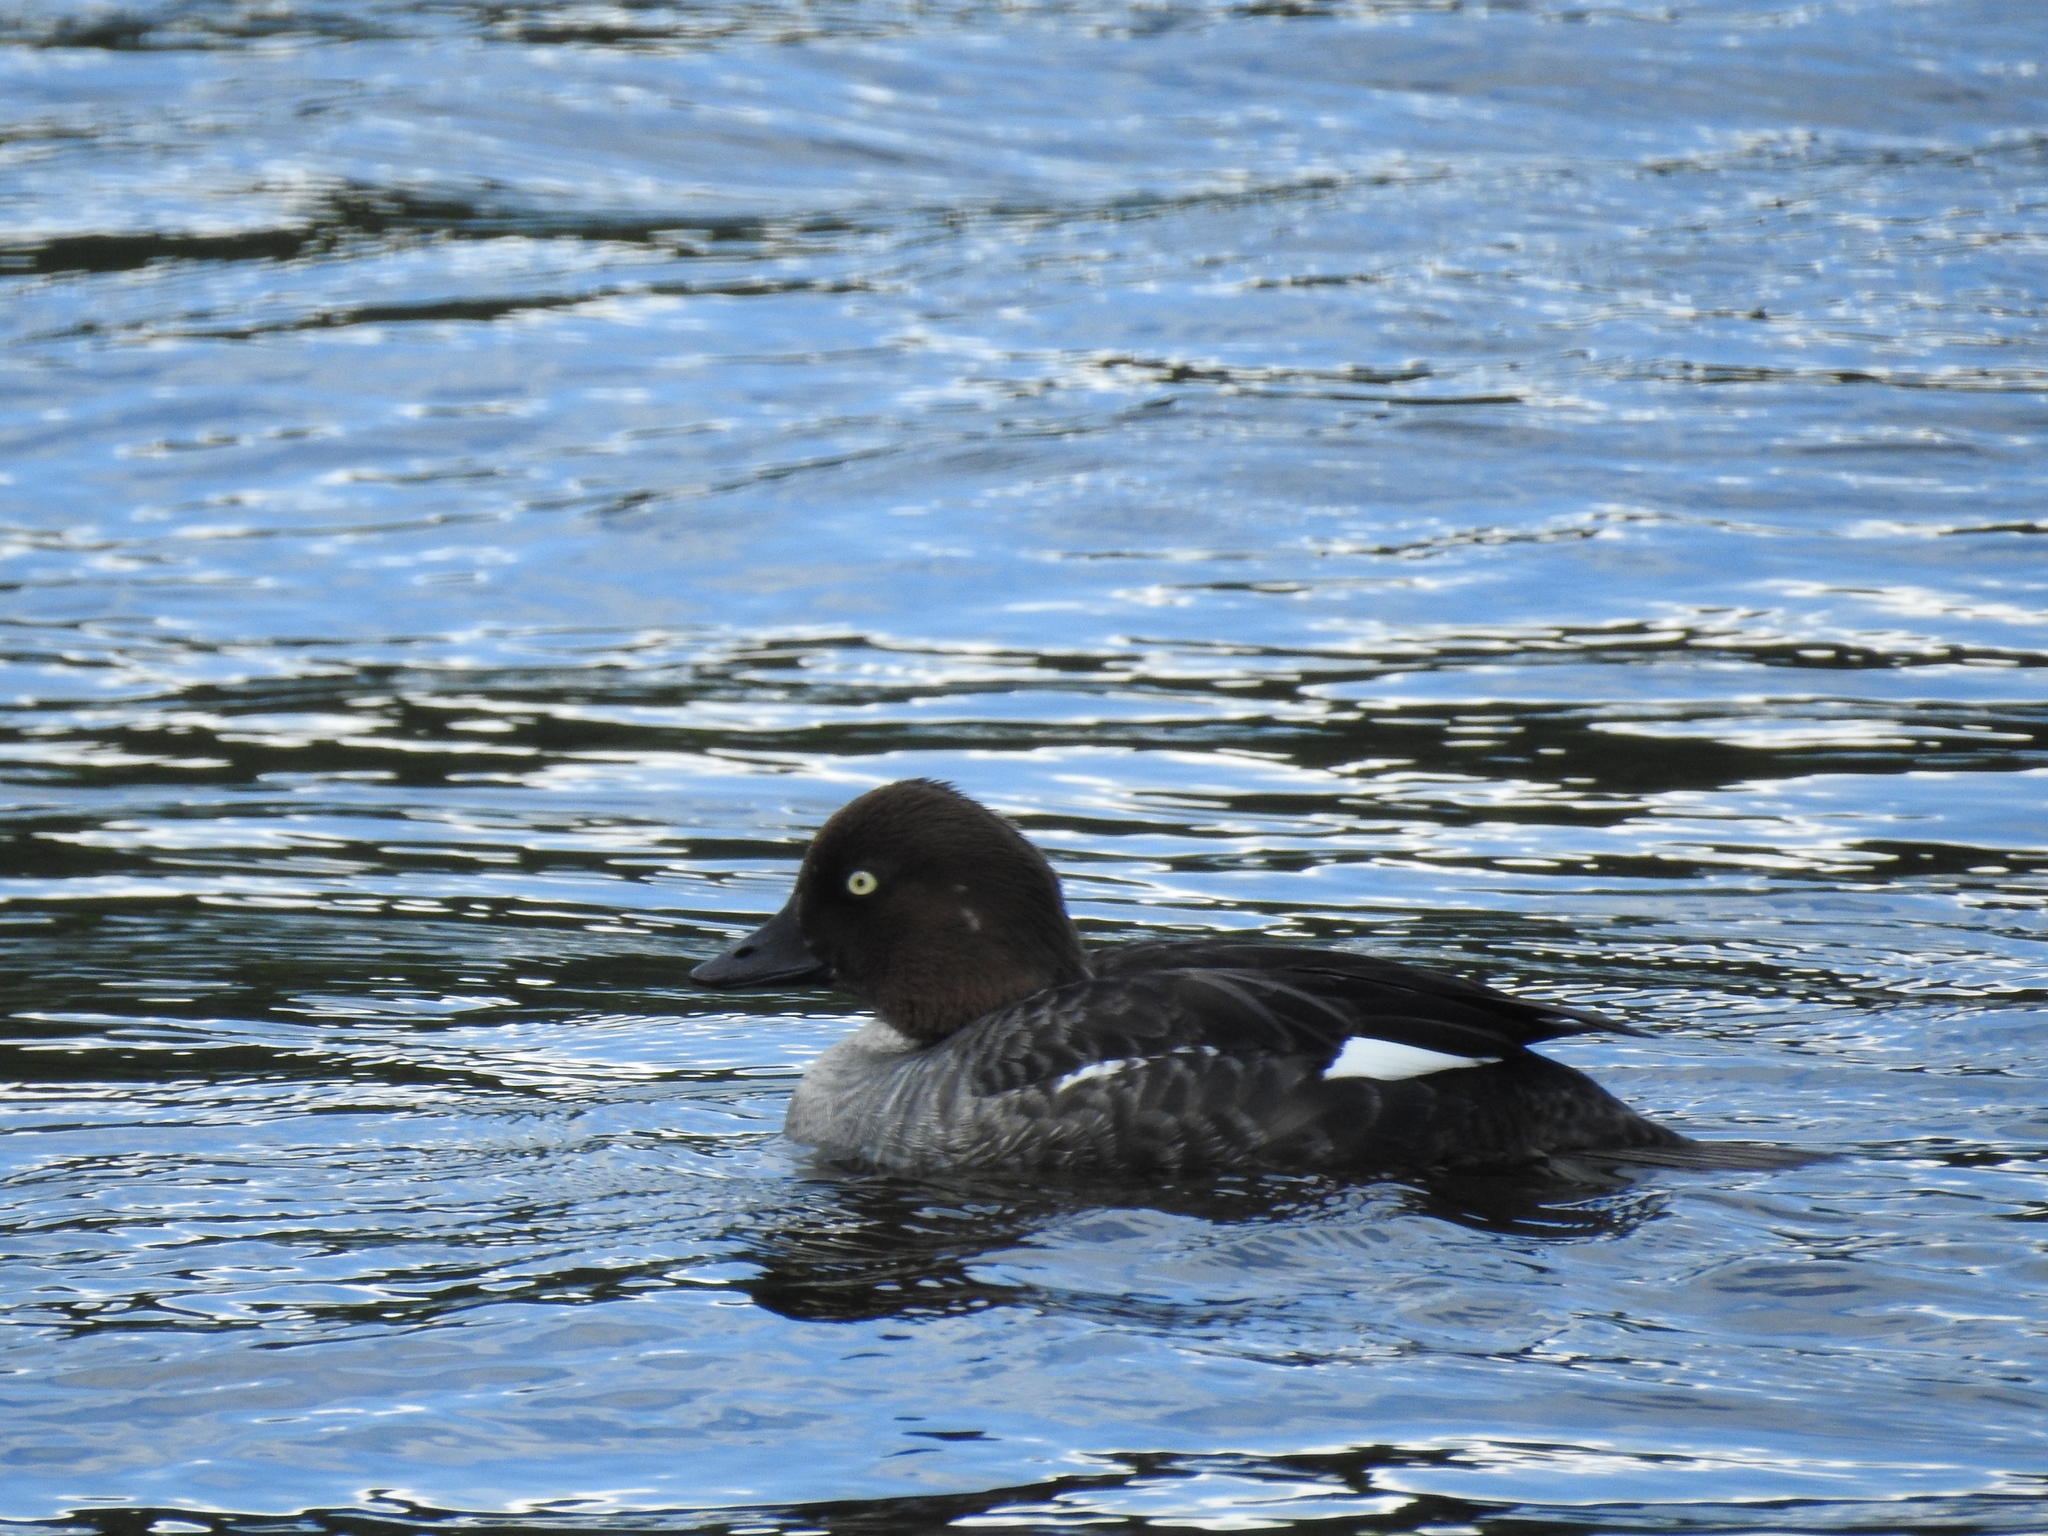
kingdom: Animalia
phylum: Chordata
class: Aves
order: Anseriformes
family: Anatidae
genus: Bucephala
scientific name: Bucephala clangula
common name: Common goldeneye
